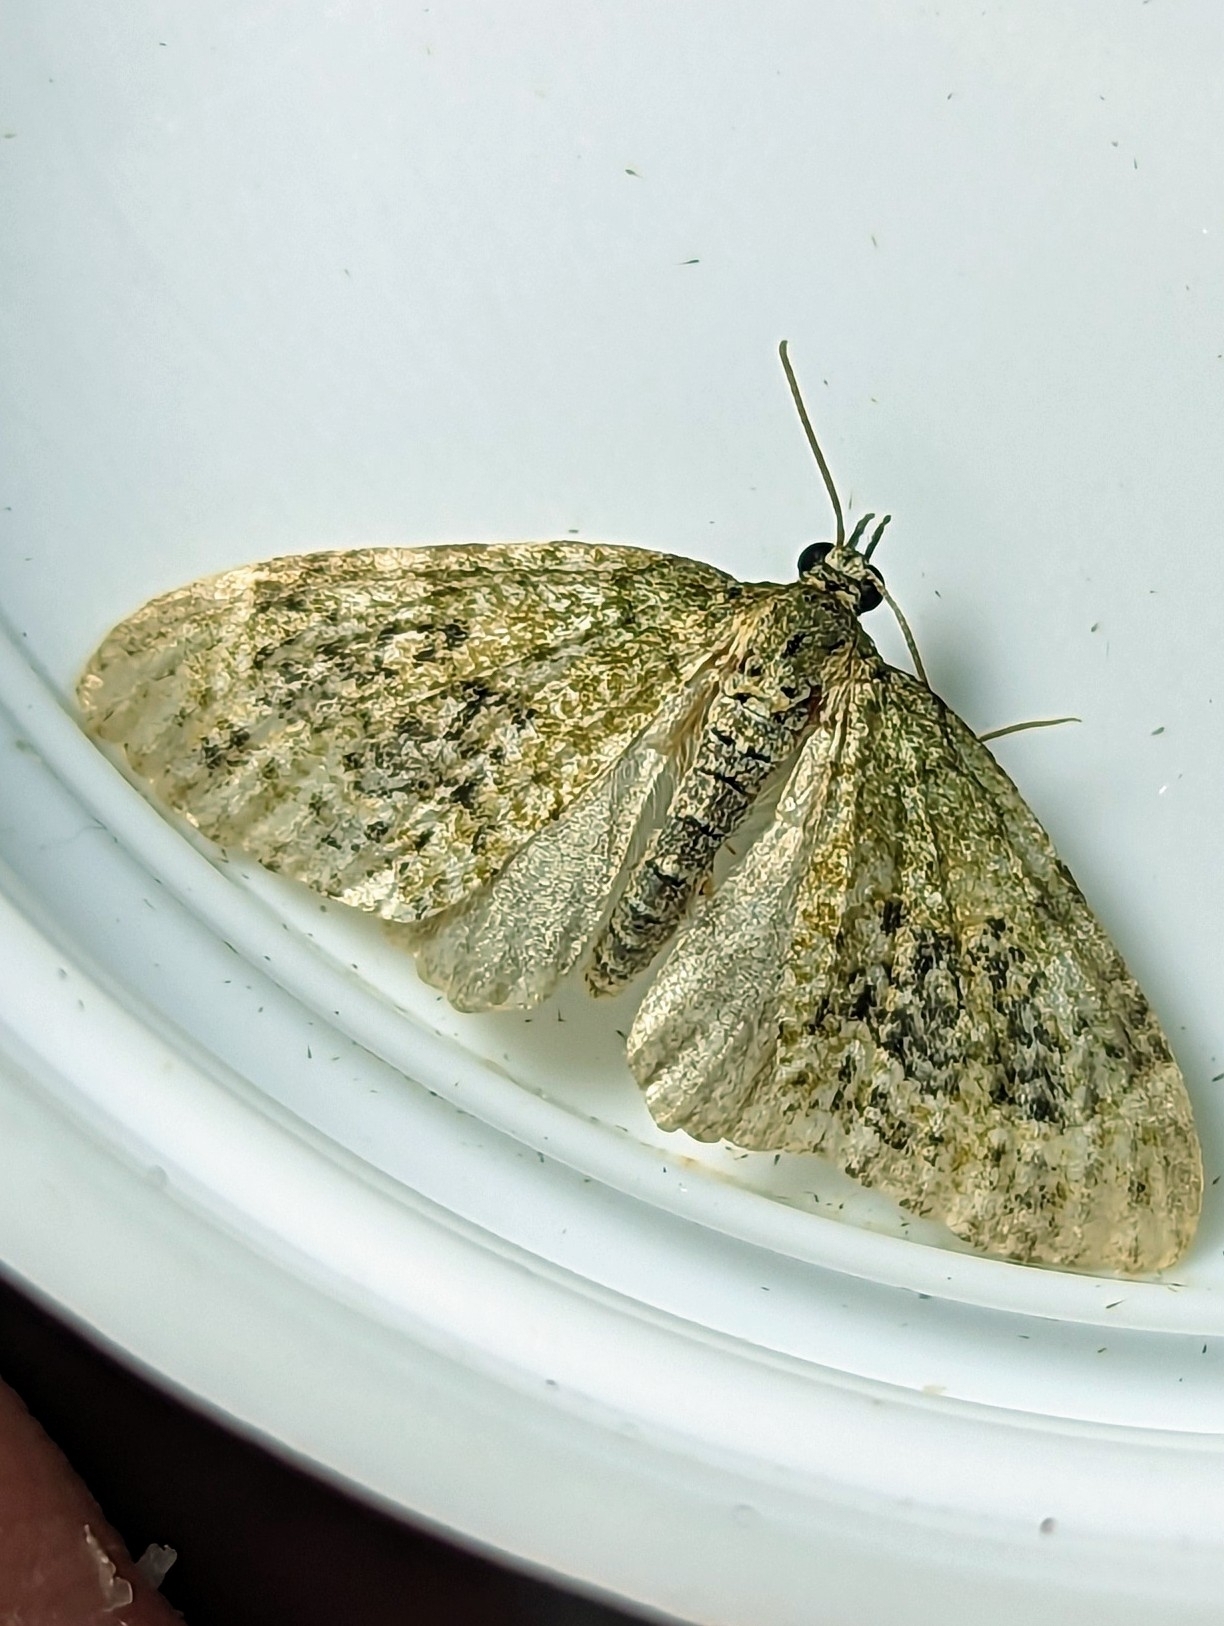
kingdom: Animalia
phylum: Arthropoda
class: Insecta
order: Lepidoptera
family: Geometridae
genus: Acasis
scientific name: Acasis viretata
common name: Yellow-barred brindle
